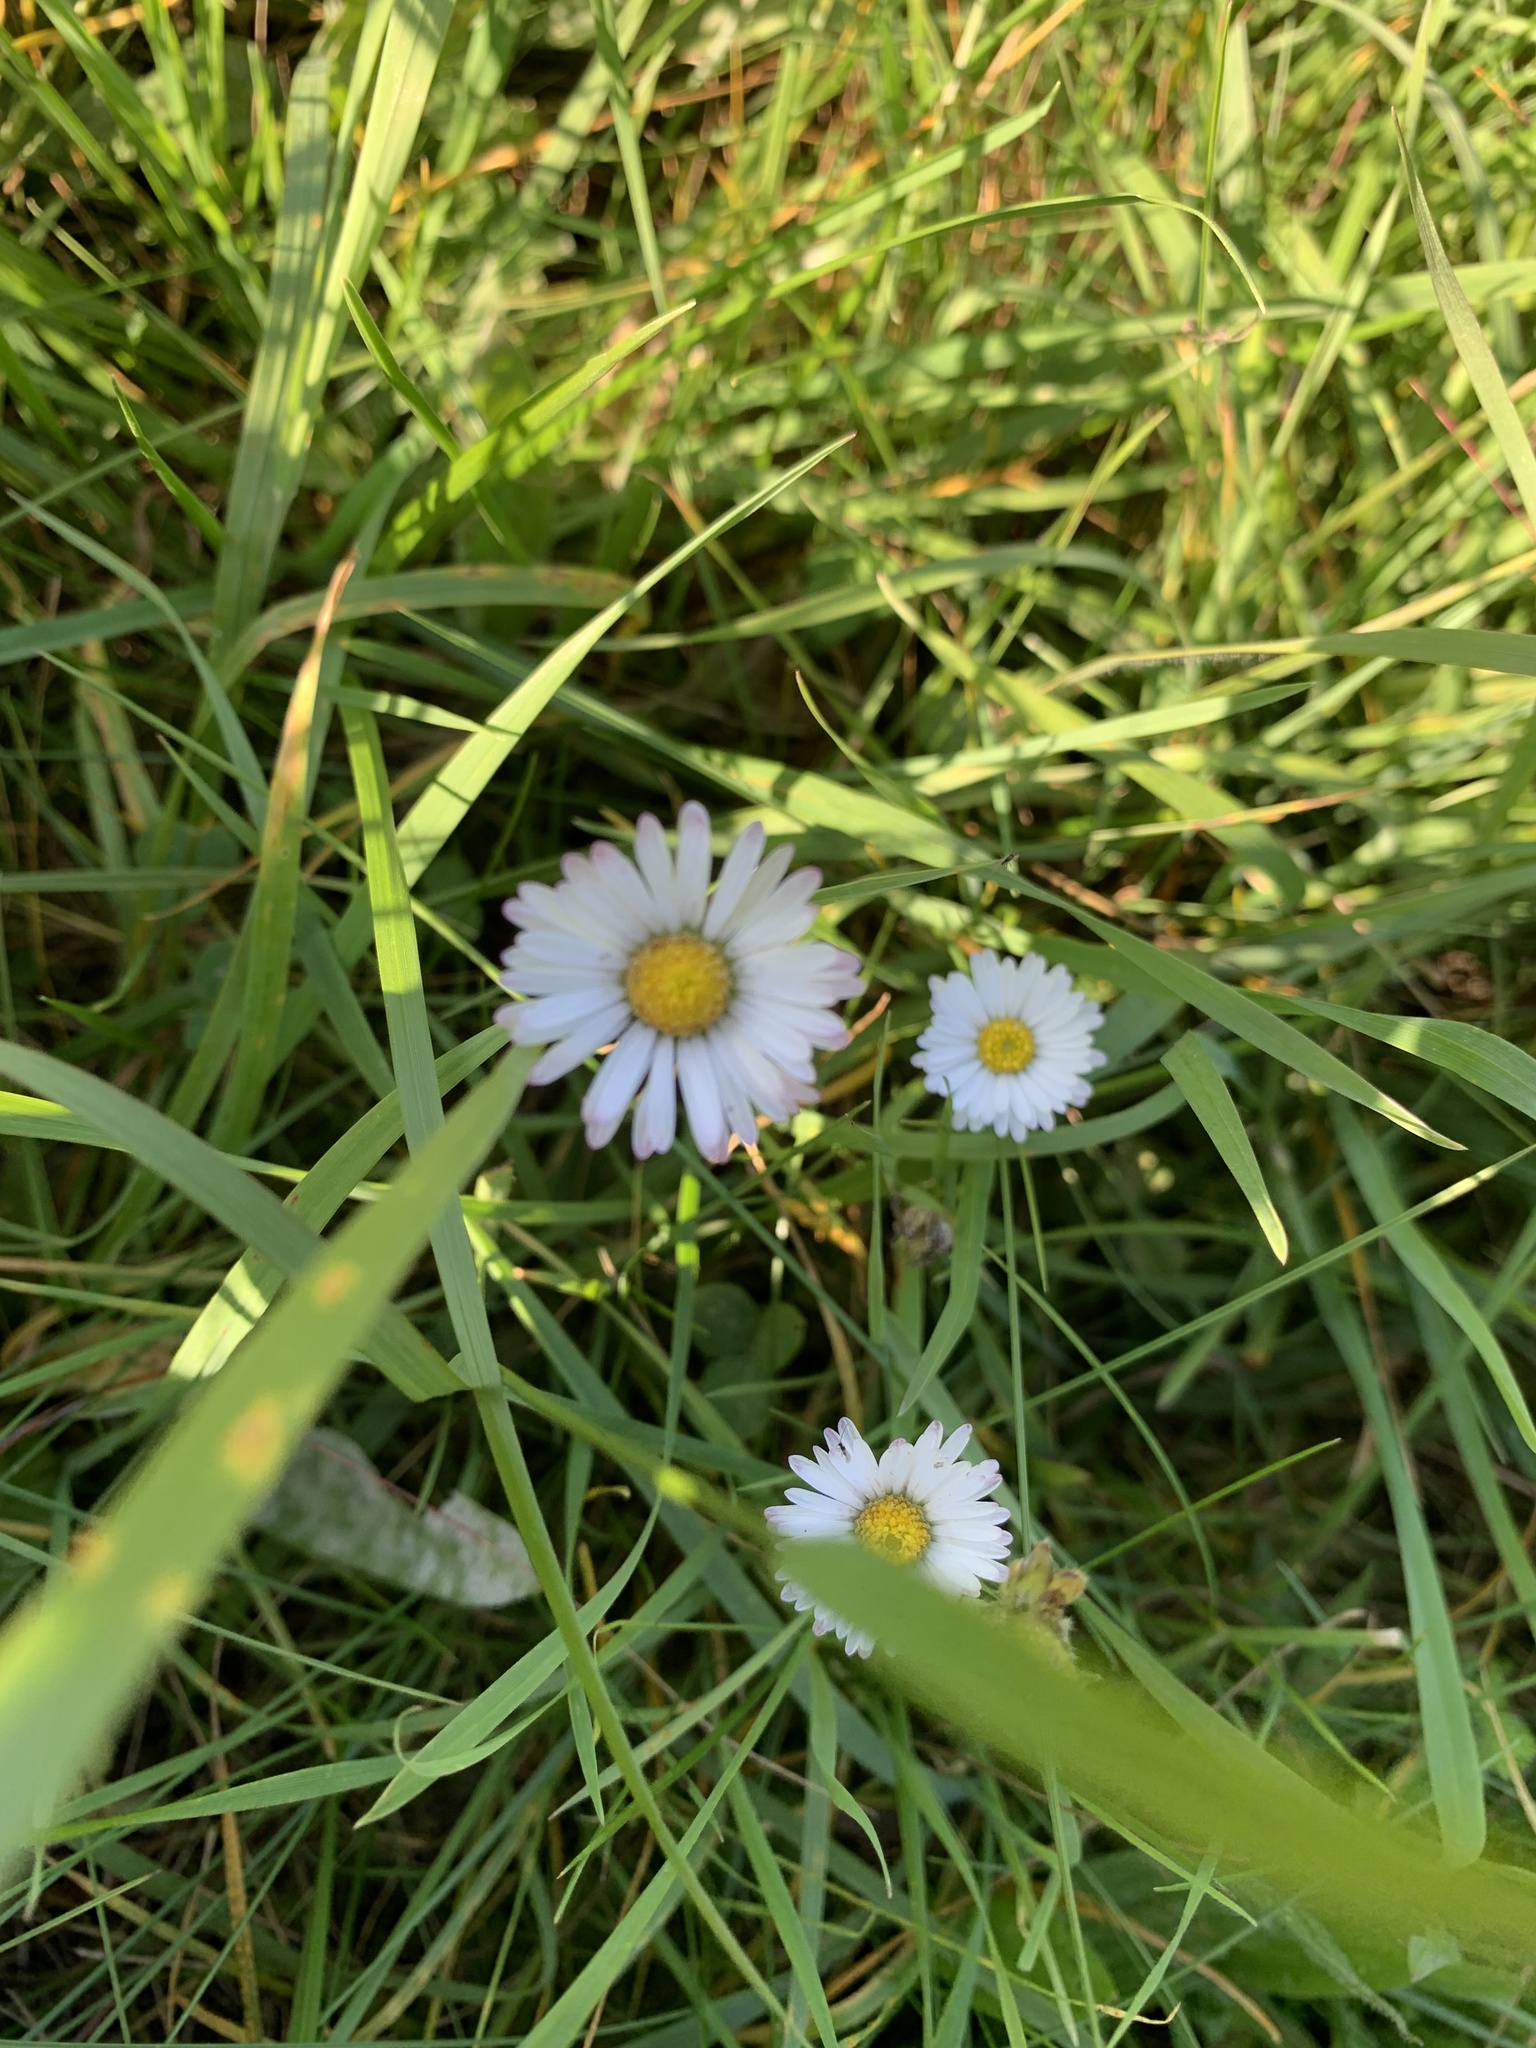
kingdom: Plantae
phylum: Tracheophyta
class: Magnoliopsida
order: Asterales
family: Asteraceae
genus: Bellis
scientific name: Bellis perennis
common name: Lawndaisy
